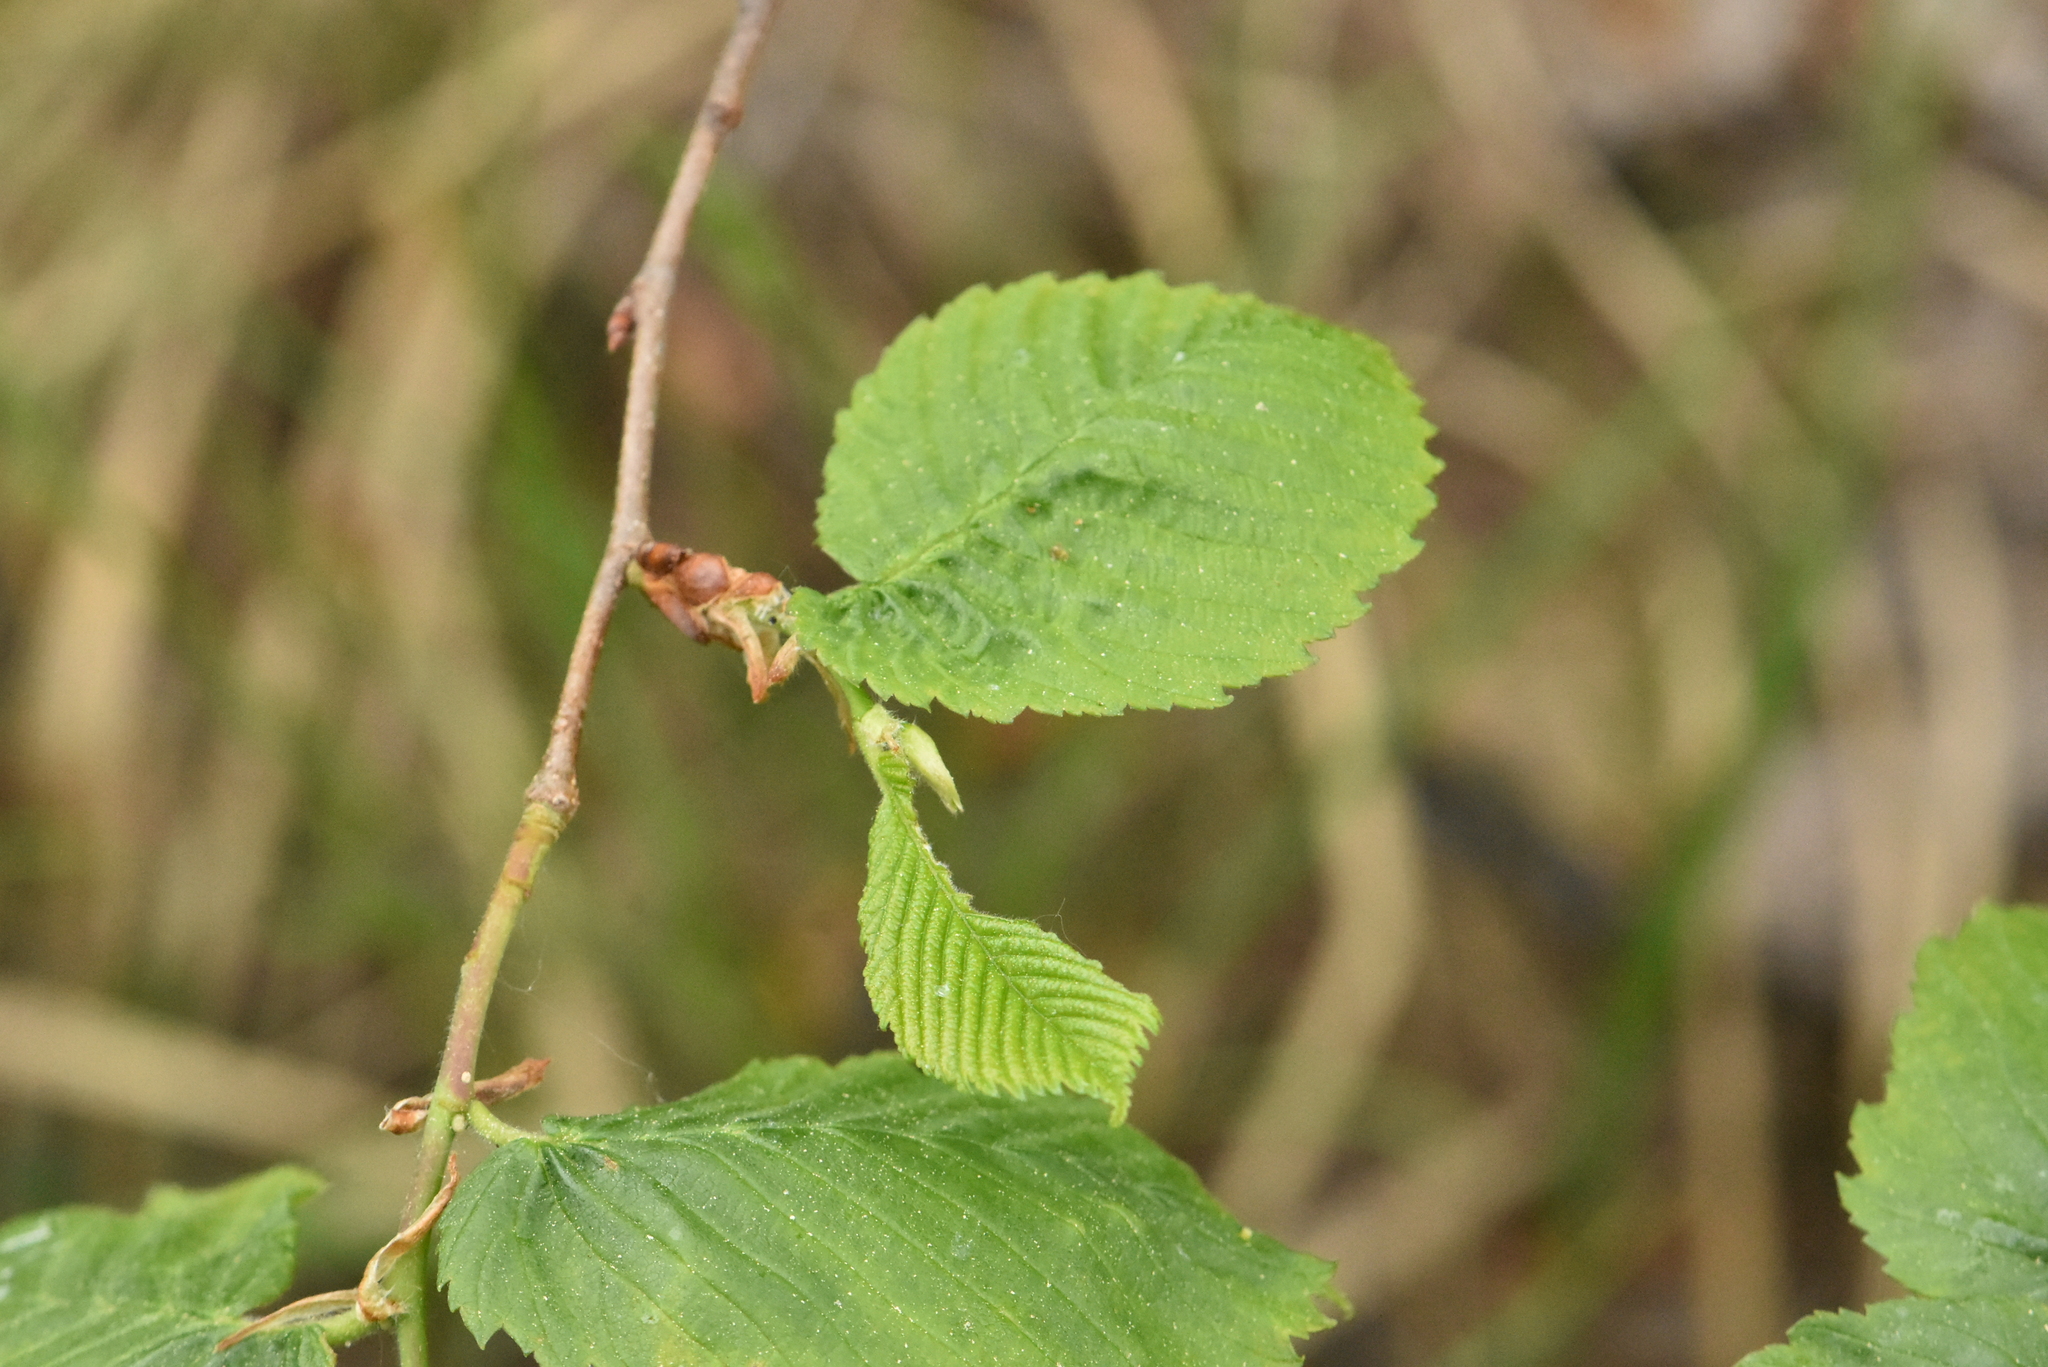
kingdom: Plantae
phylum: Tracheophyta
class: Magnoliopsida
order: Rosales
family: Ulmaceae
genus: Ulmus
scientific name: Ulmus laevis
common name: European white-elm
